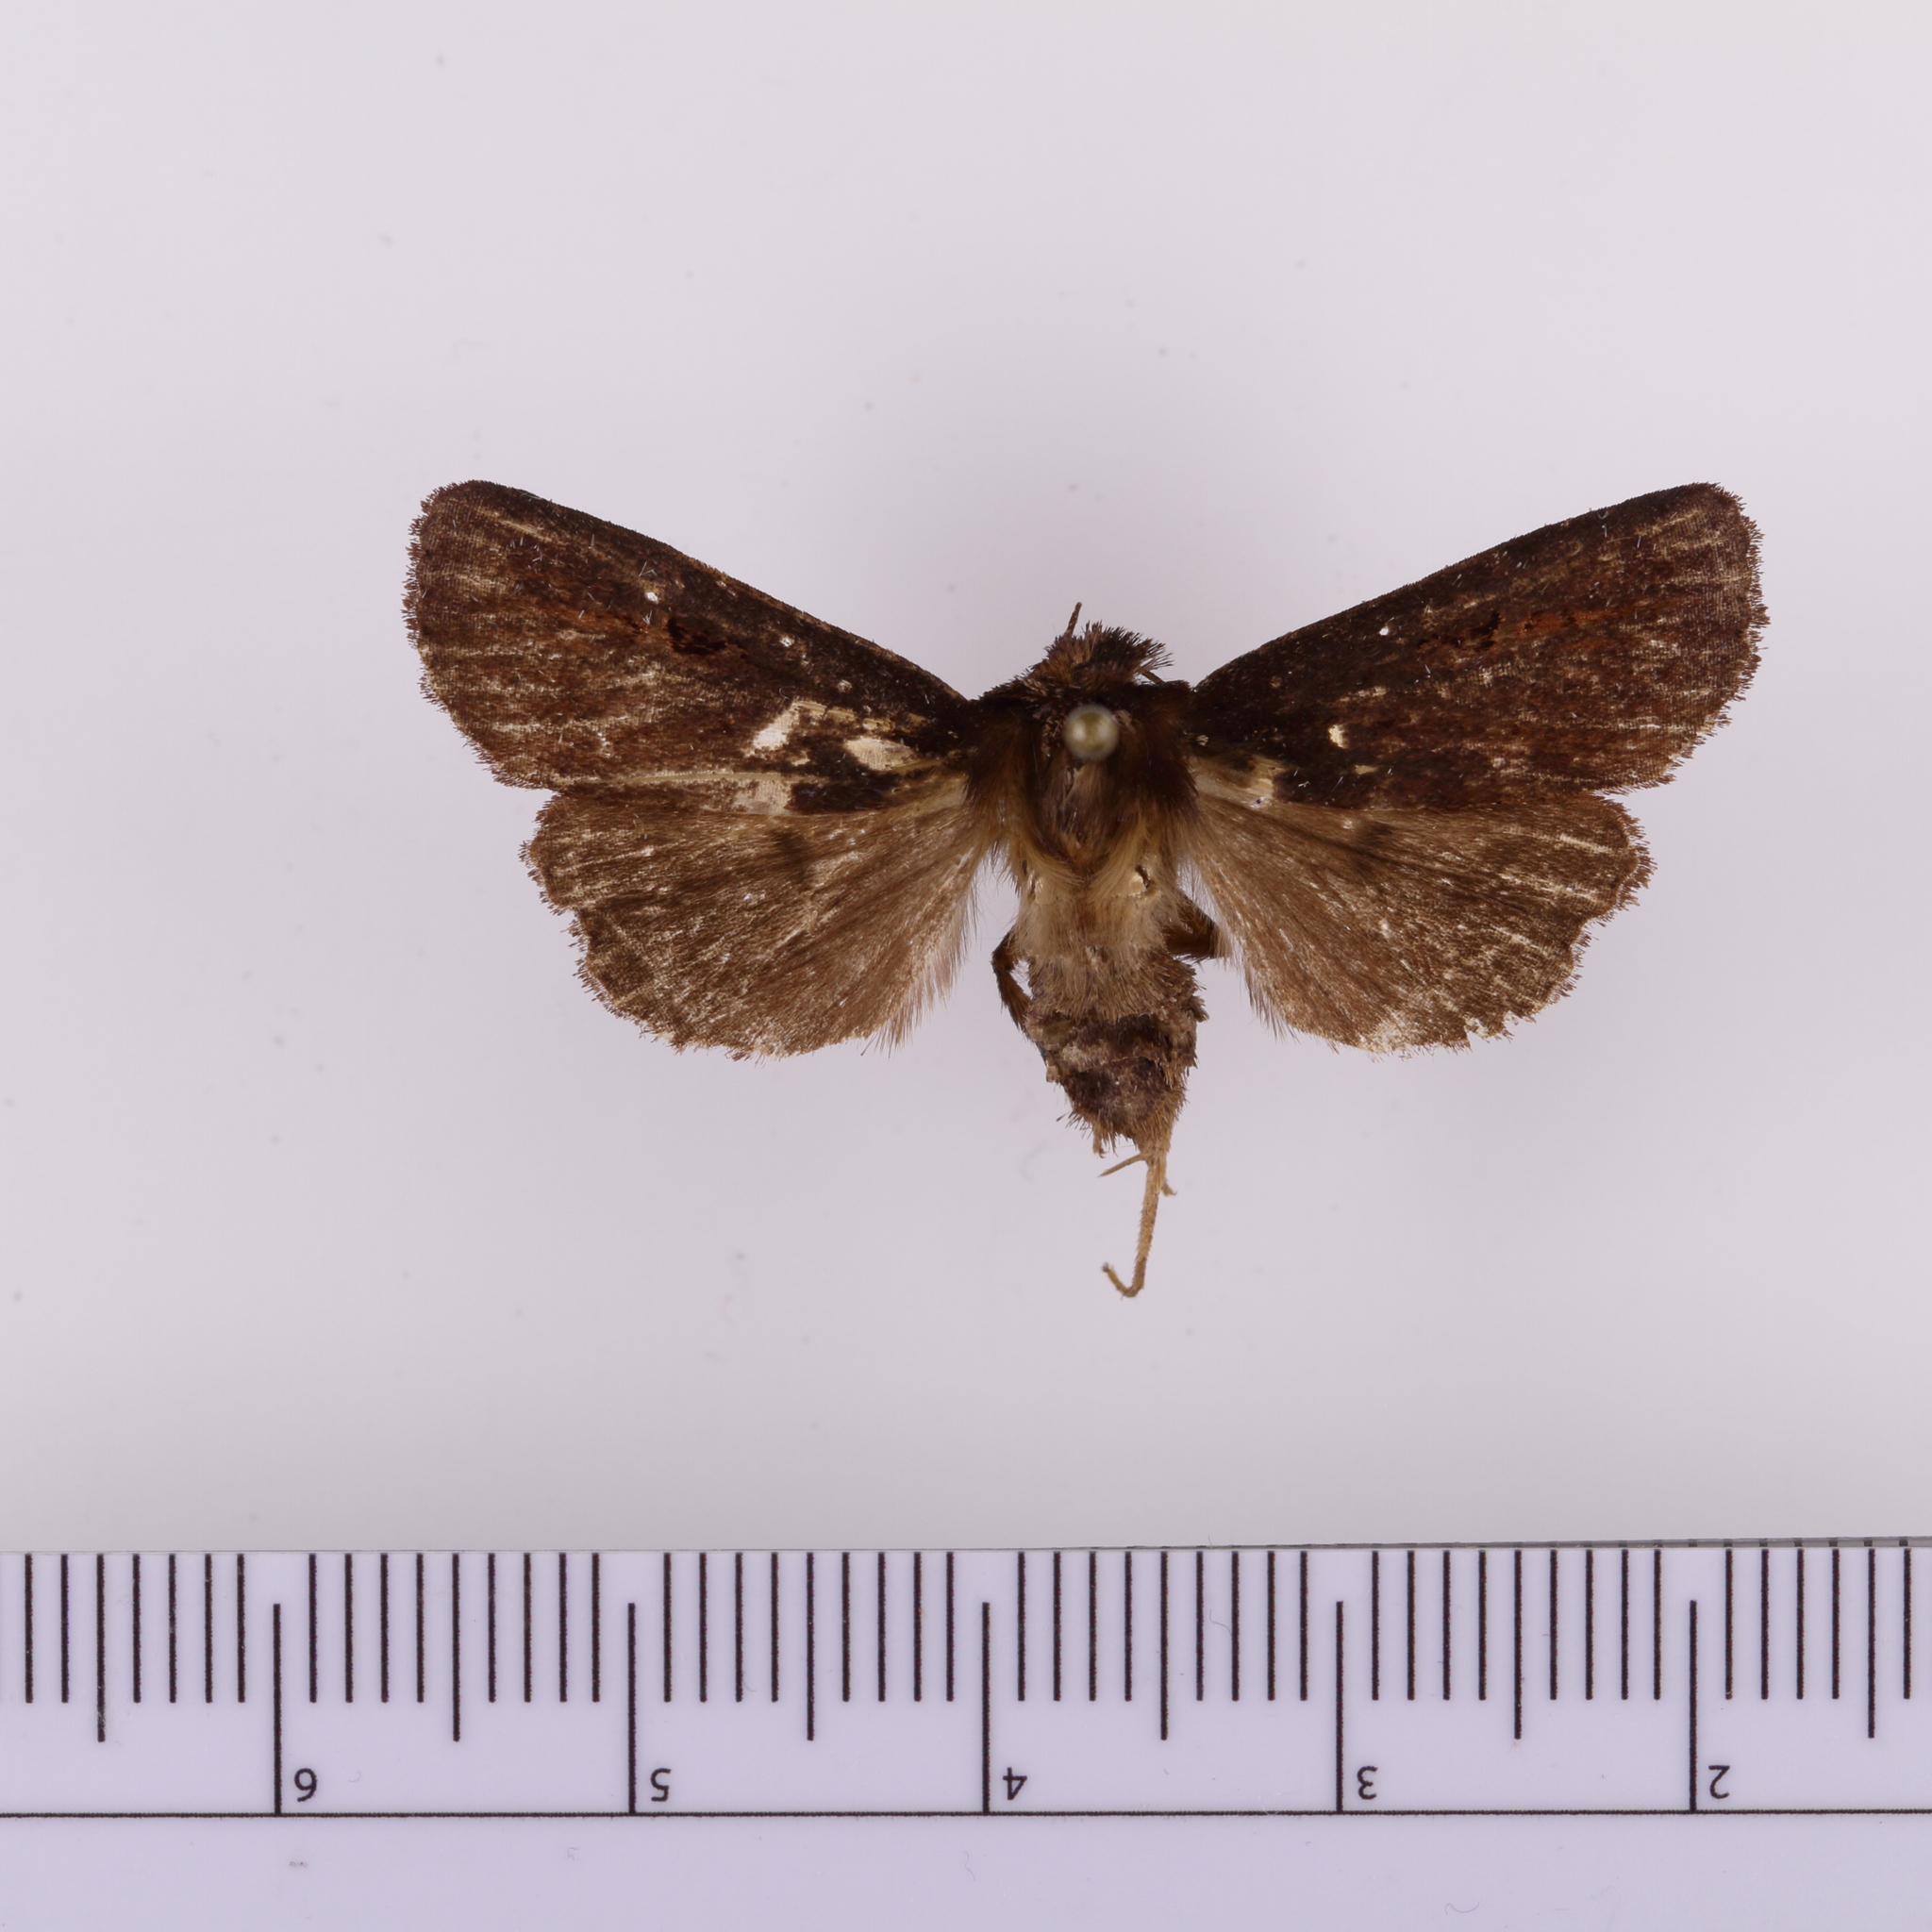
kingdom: Animalia
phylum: Arthropoda
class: Insecta
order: Lepidoptera
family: Noctuidae
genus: Austramathes
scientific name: Austramathes purpurea
